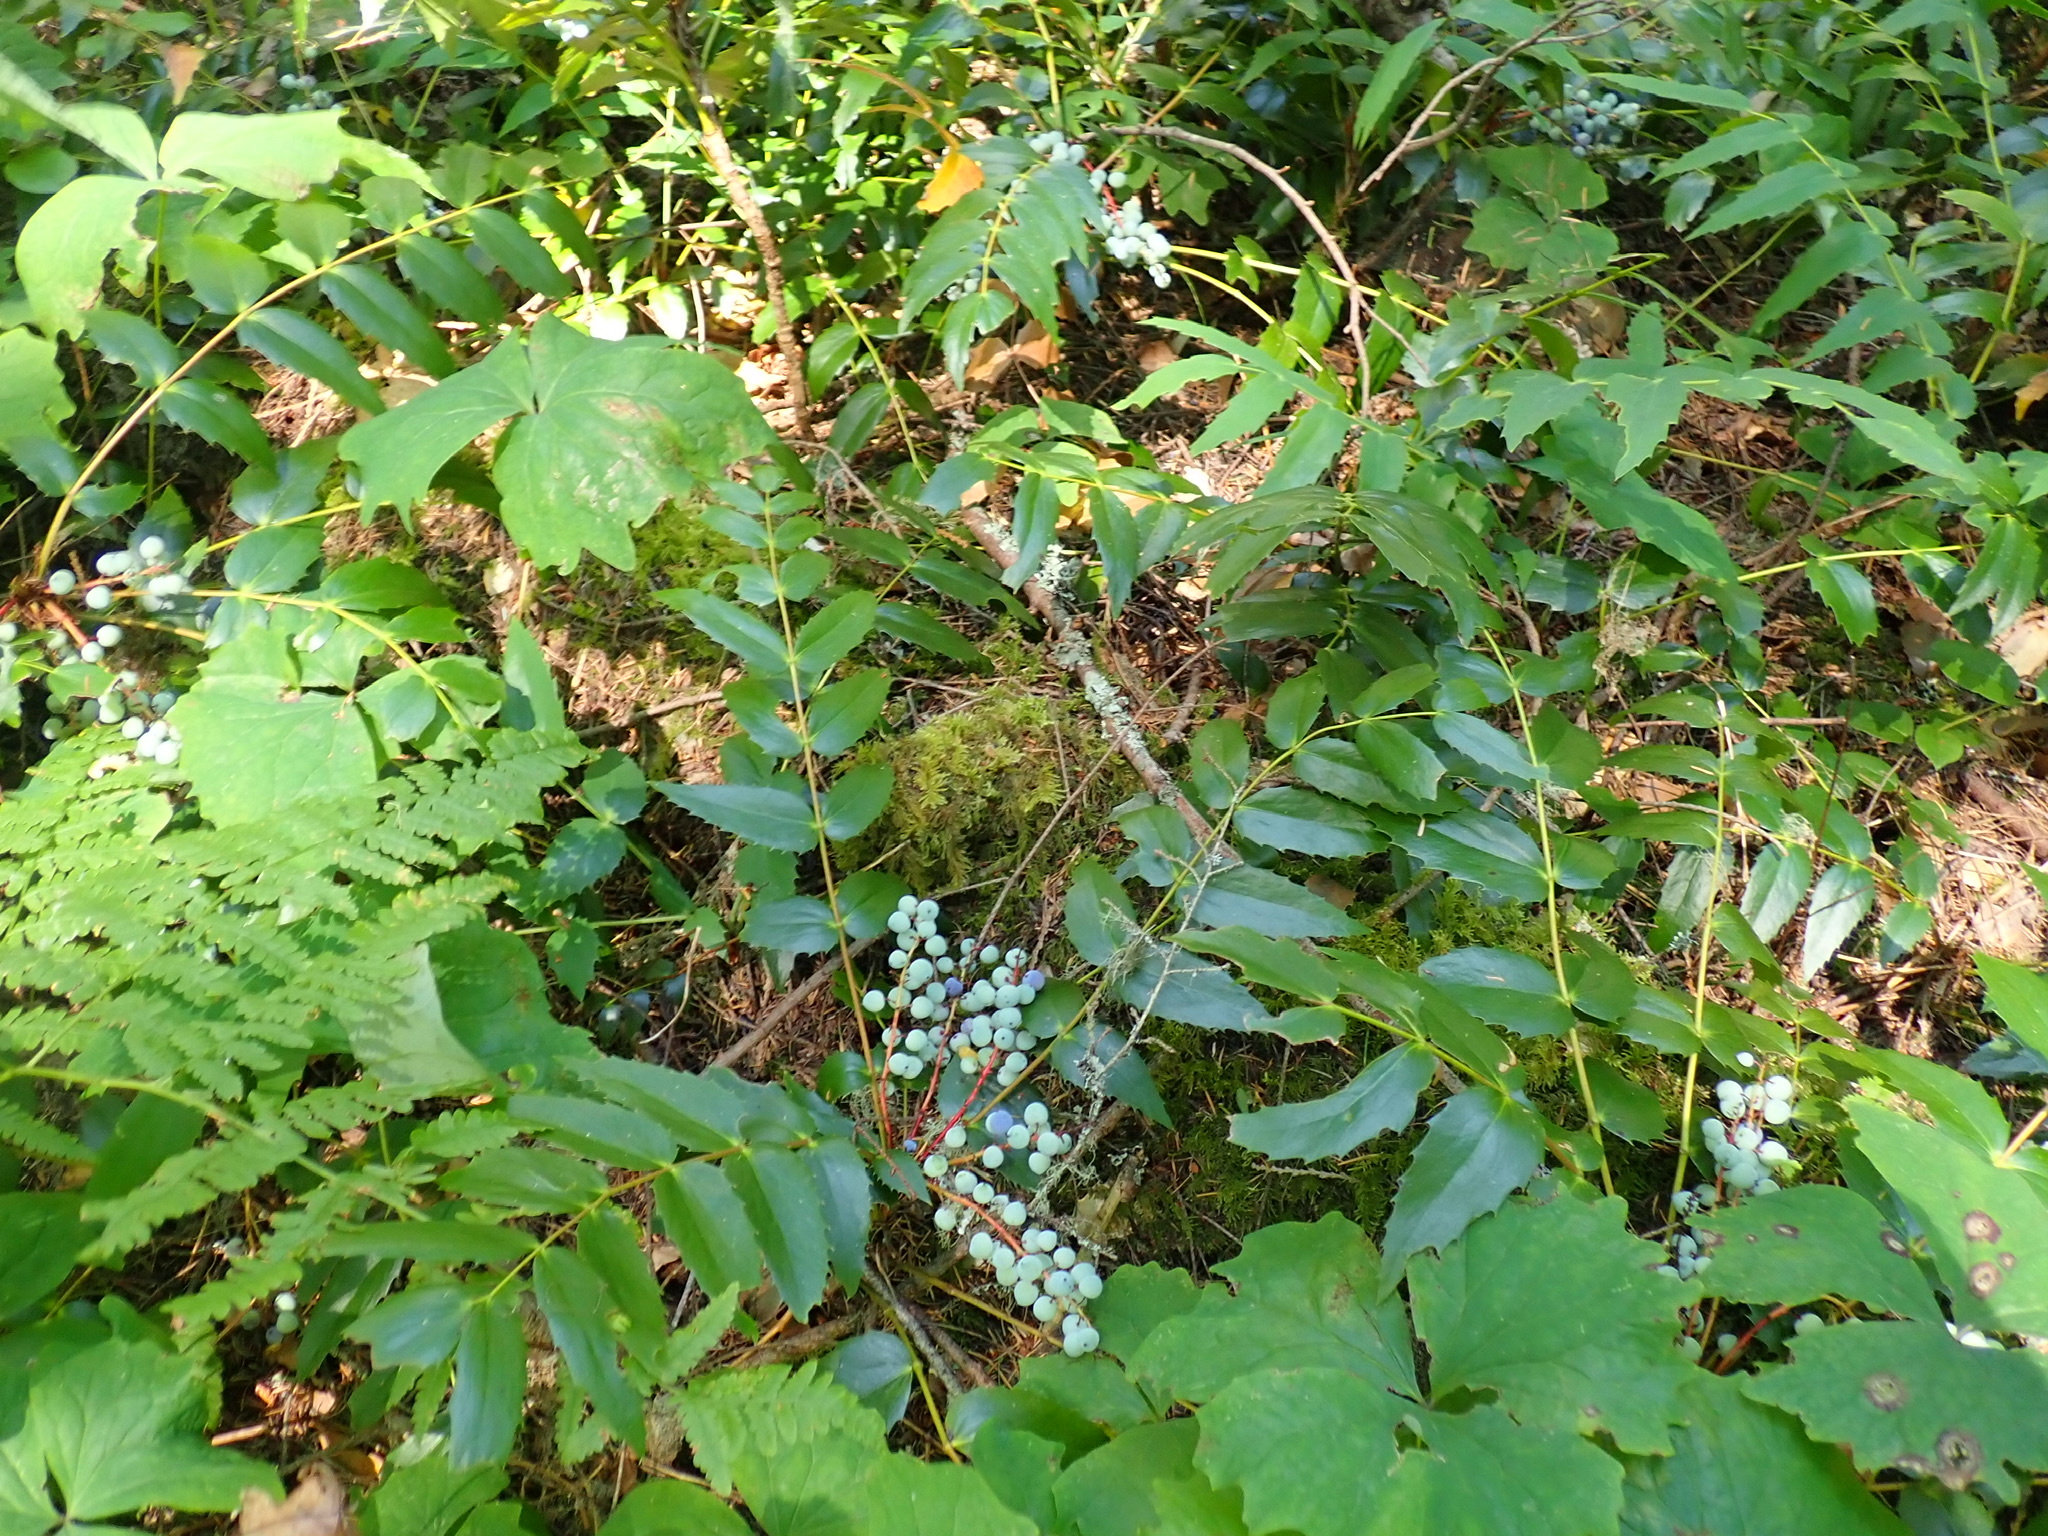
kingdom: Plantae
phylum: Tracheophyta
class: Magnoliopsida
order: Ranunculales
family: Berberidaceae
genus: Mahonia
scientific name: Mahonia nervosa
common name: Cascade oregon-grape
